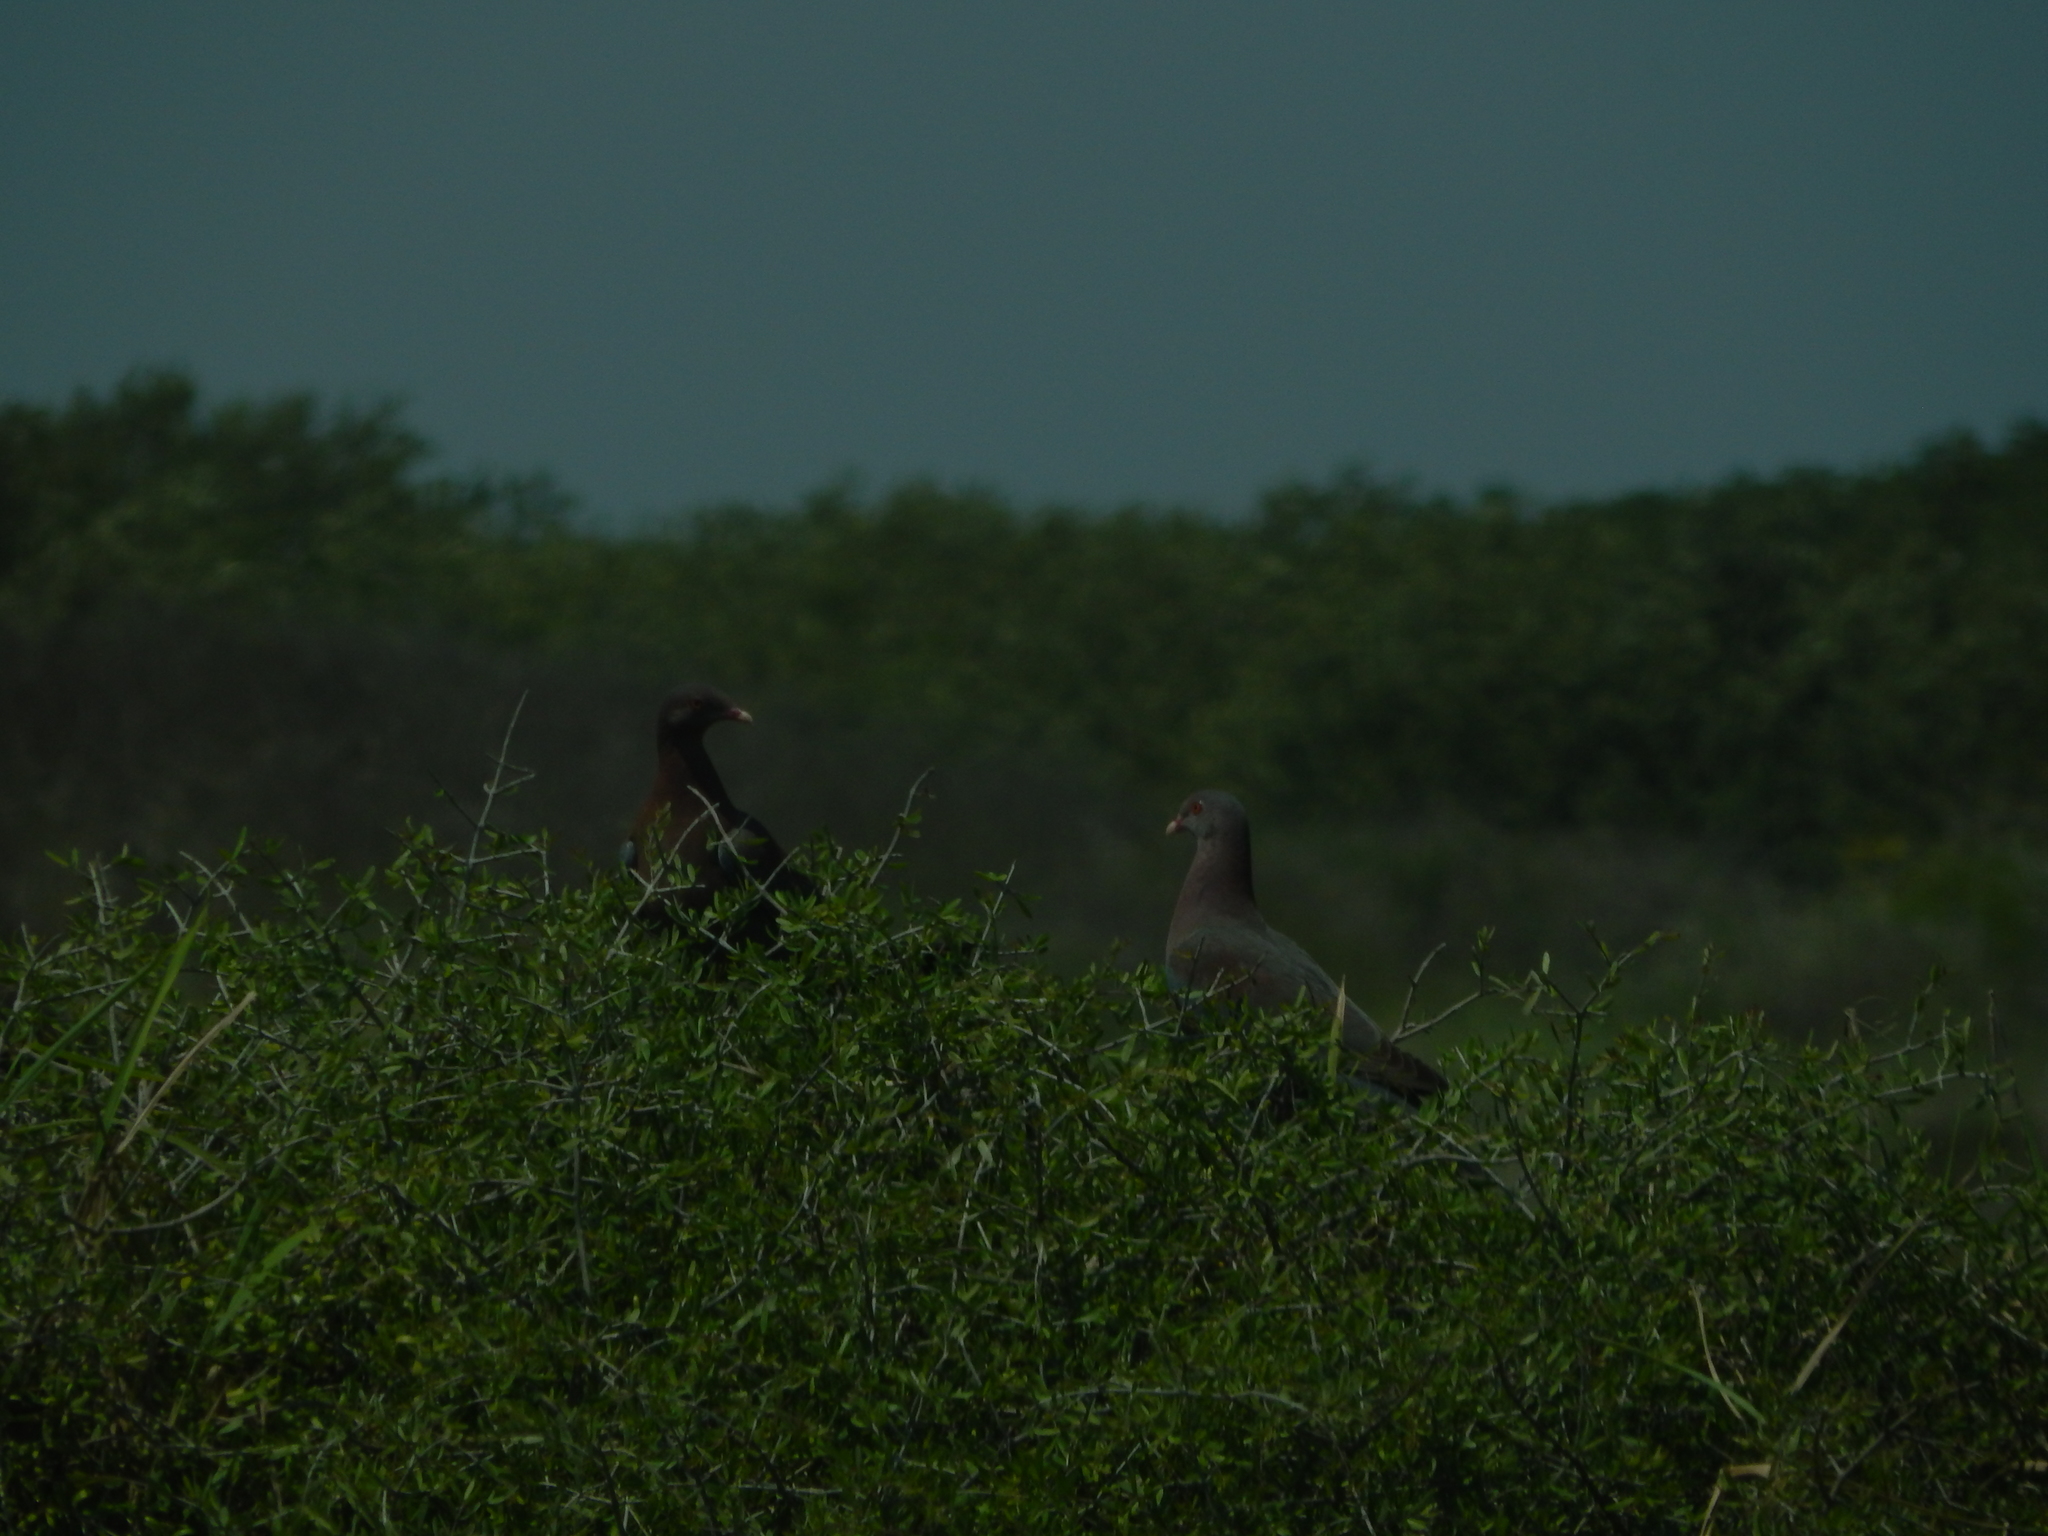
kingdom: Animalia
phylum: Chordata
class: Aves
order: Columbiformes
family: Columbidae
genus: Patagioenas
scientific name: Patagioenas flavirostris
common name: Red-billed pigeon
